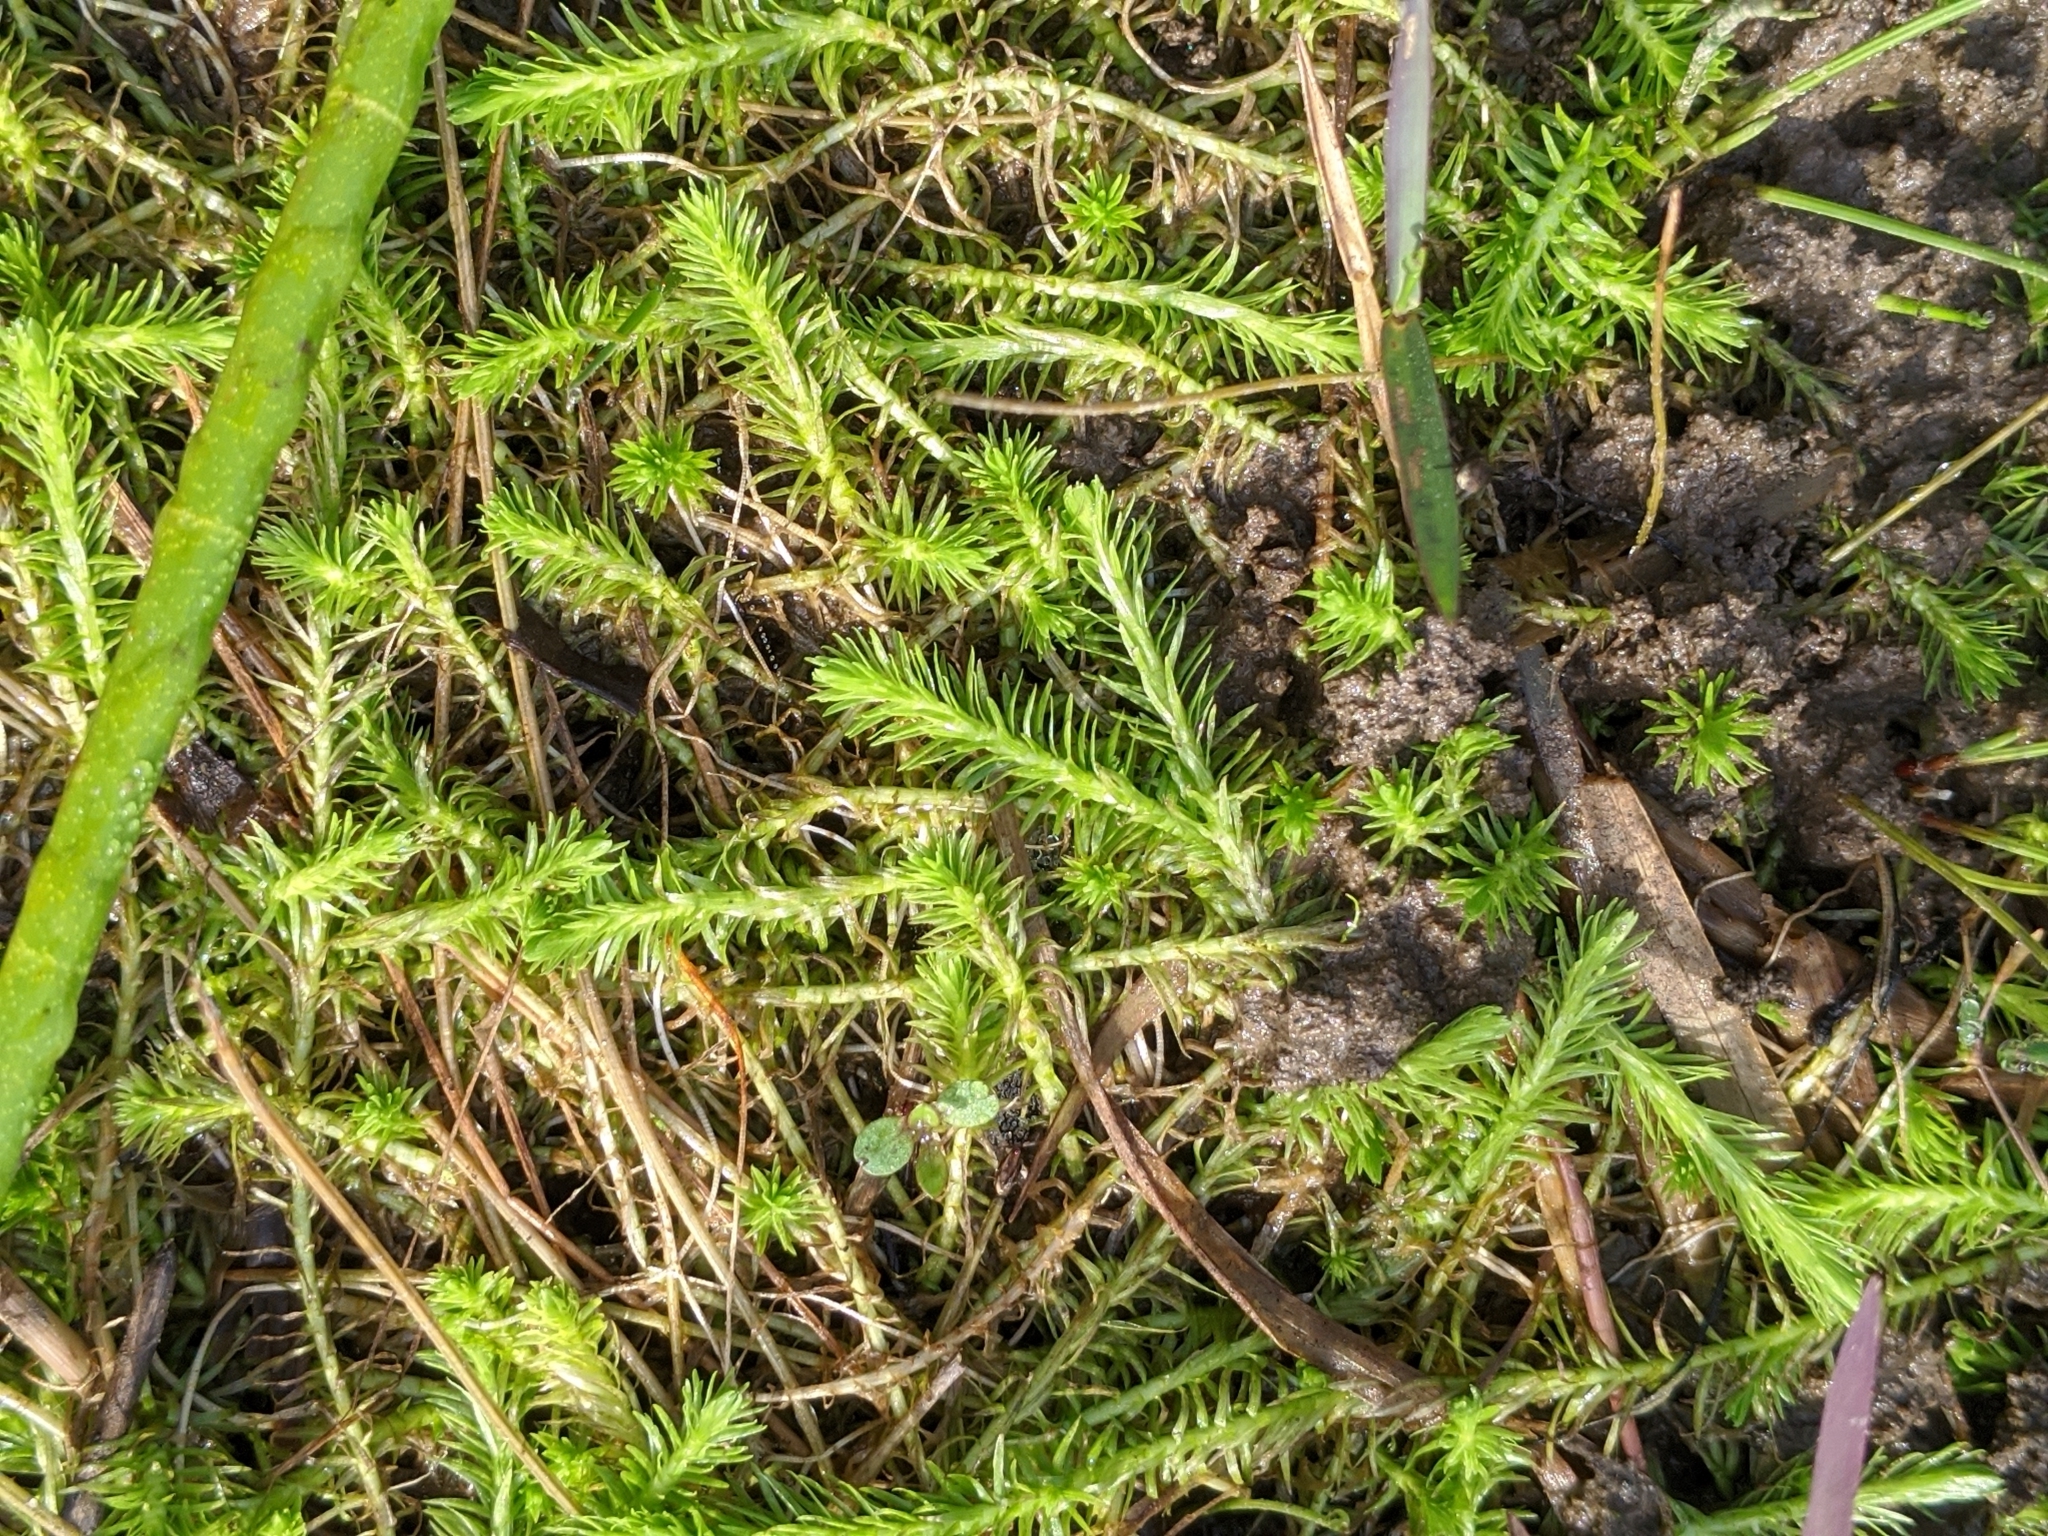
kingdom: Plantae
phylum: Tracheophyta
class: Liliopsida
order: Poales
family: Mayacaceae
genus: Mayaca
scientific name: Mayaca fluviatilis
